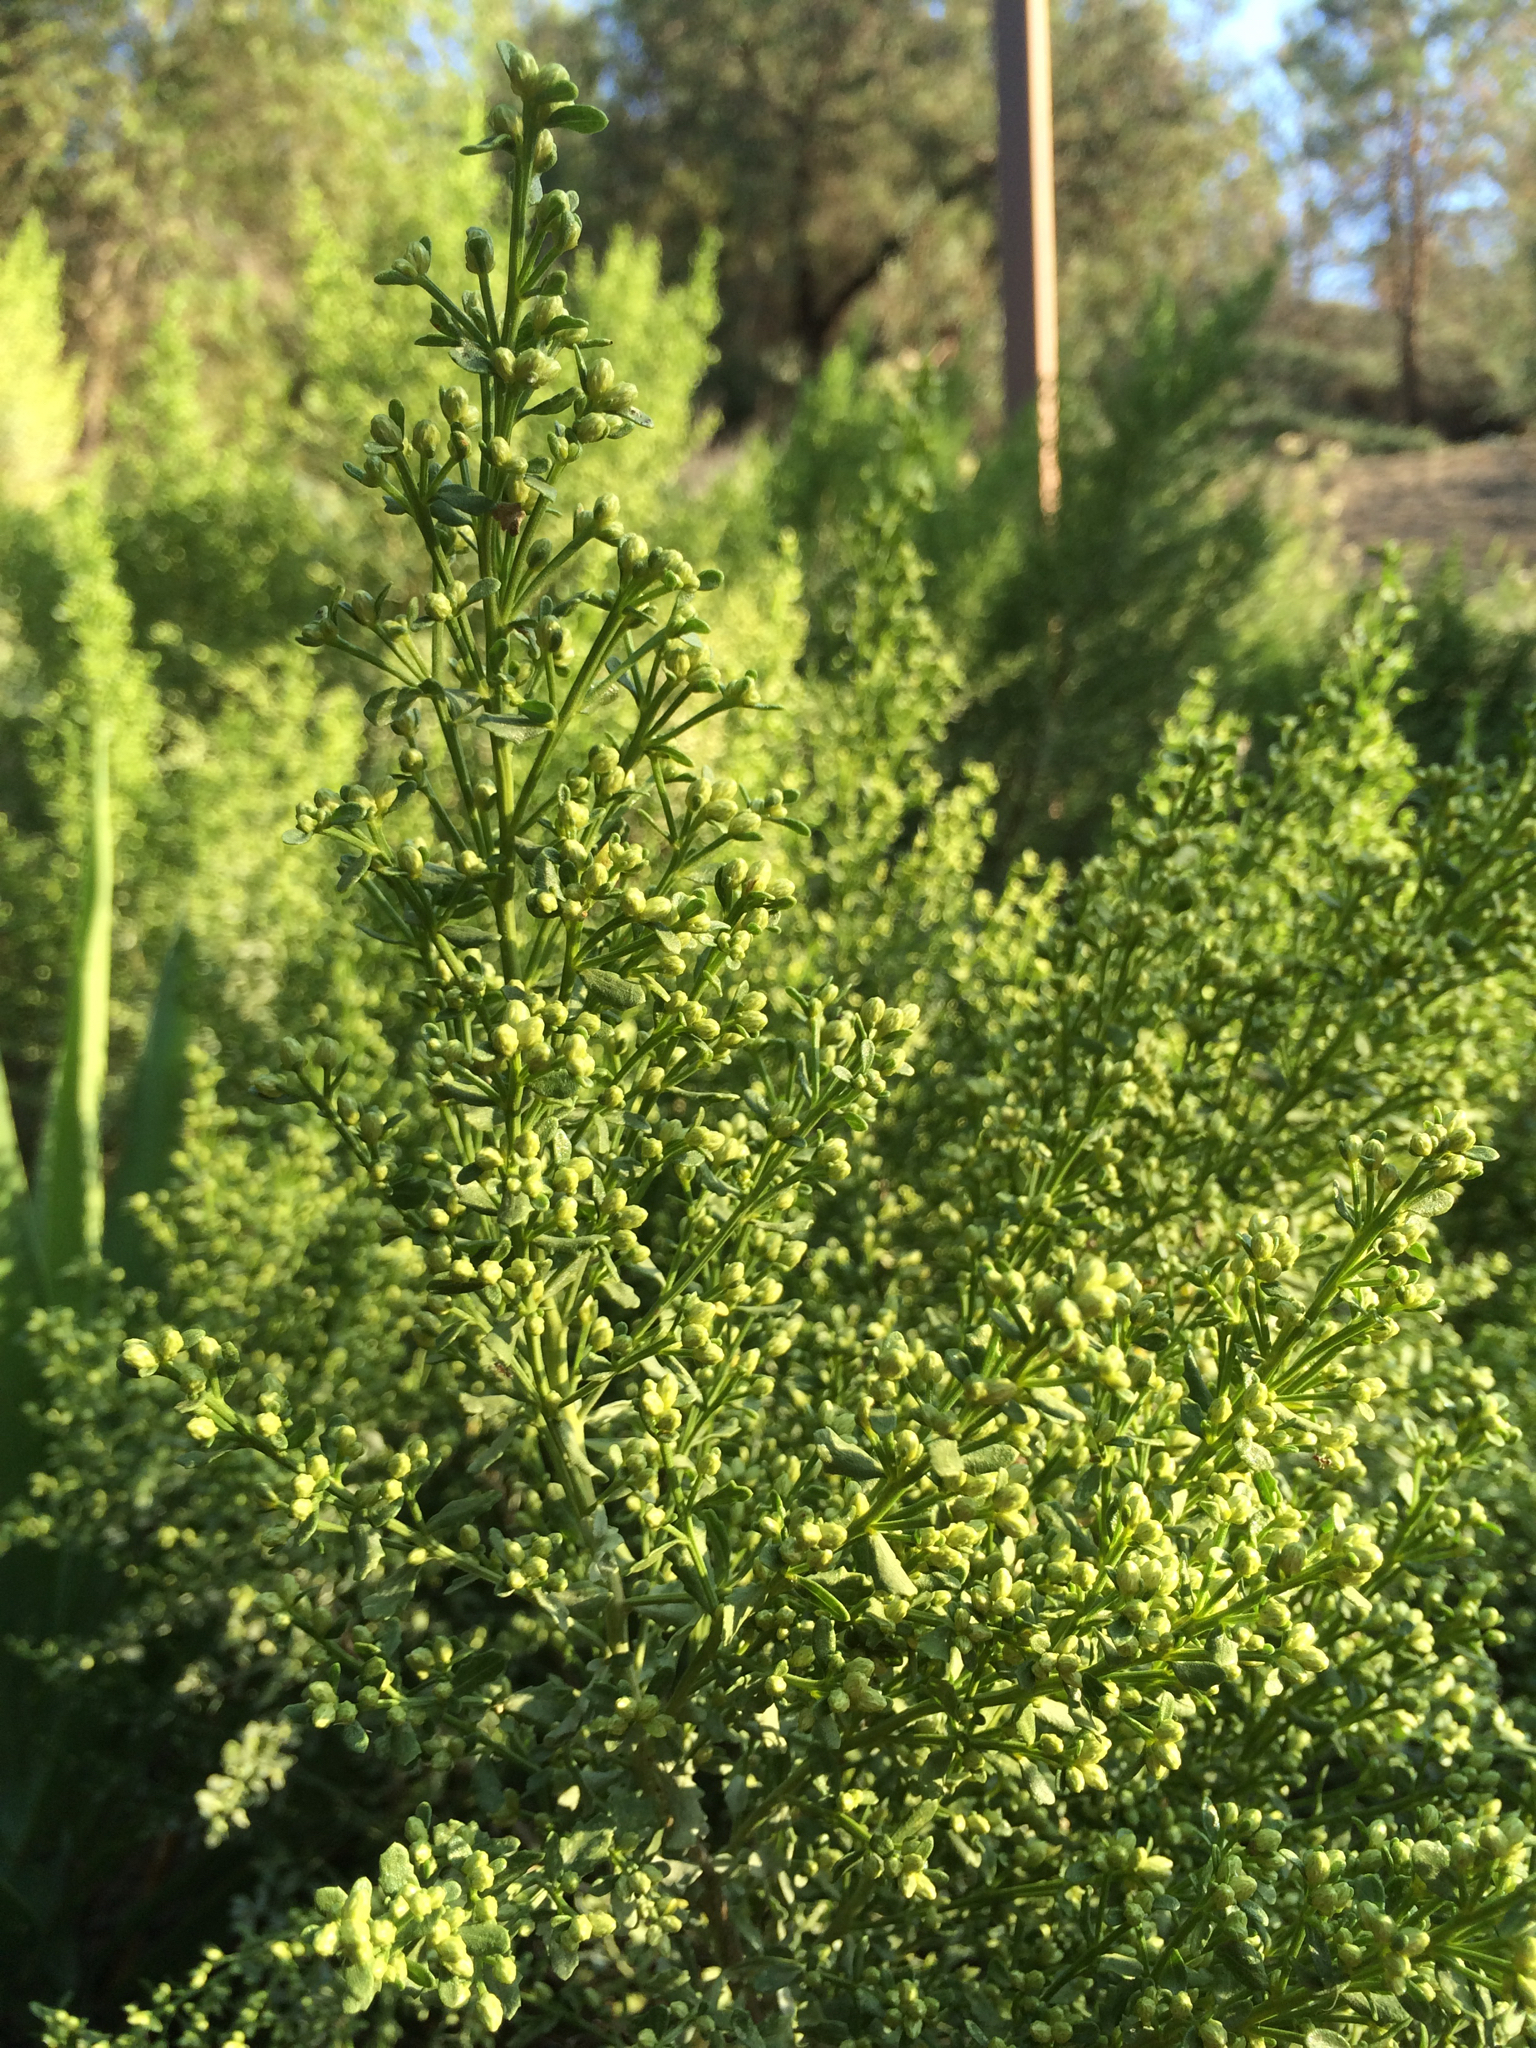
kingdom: Plantae
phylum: Tracheophyta
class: Magnoliopsida
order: Asterales
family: Asteraceae
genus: Baccharis
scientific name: Baccharis pilularis
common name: Coyotebrush
